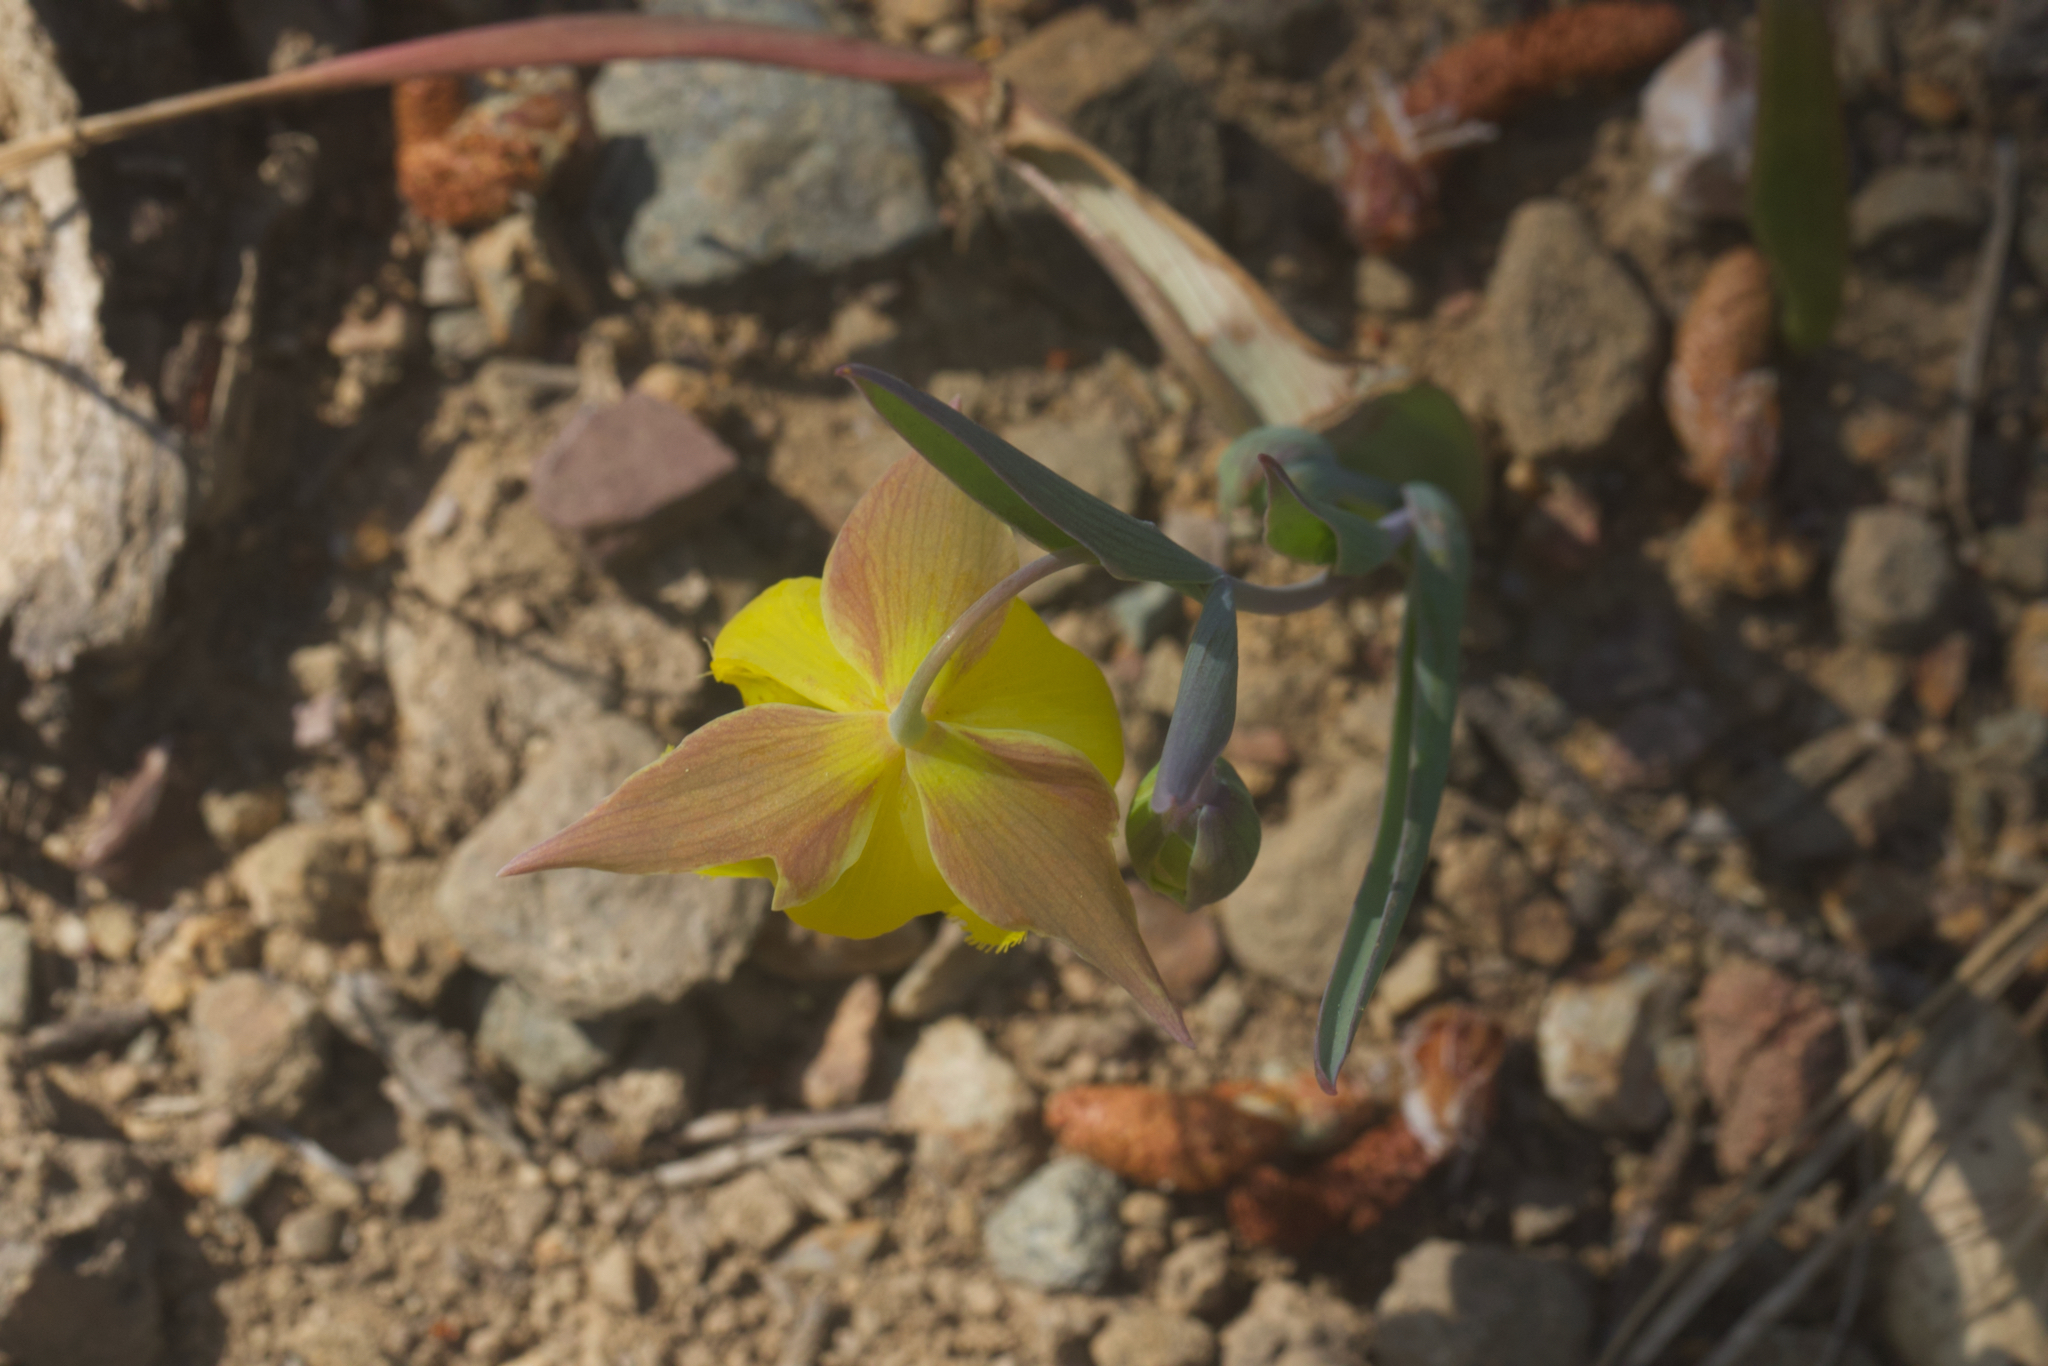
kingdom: Plantae
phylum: Tracheophyta
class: Liliopsida
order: Liliales
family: Liliaceae
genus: Calochortus
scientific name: Calochortus pulchellus
